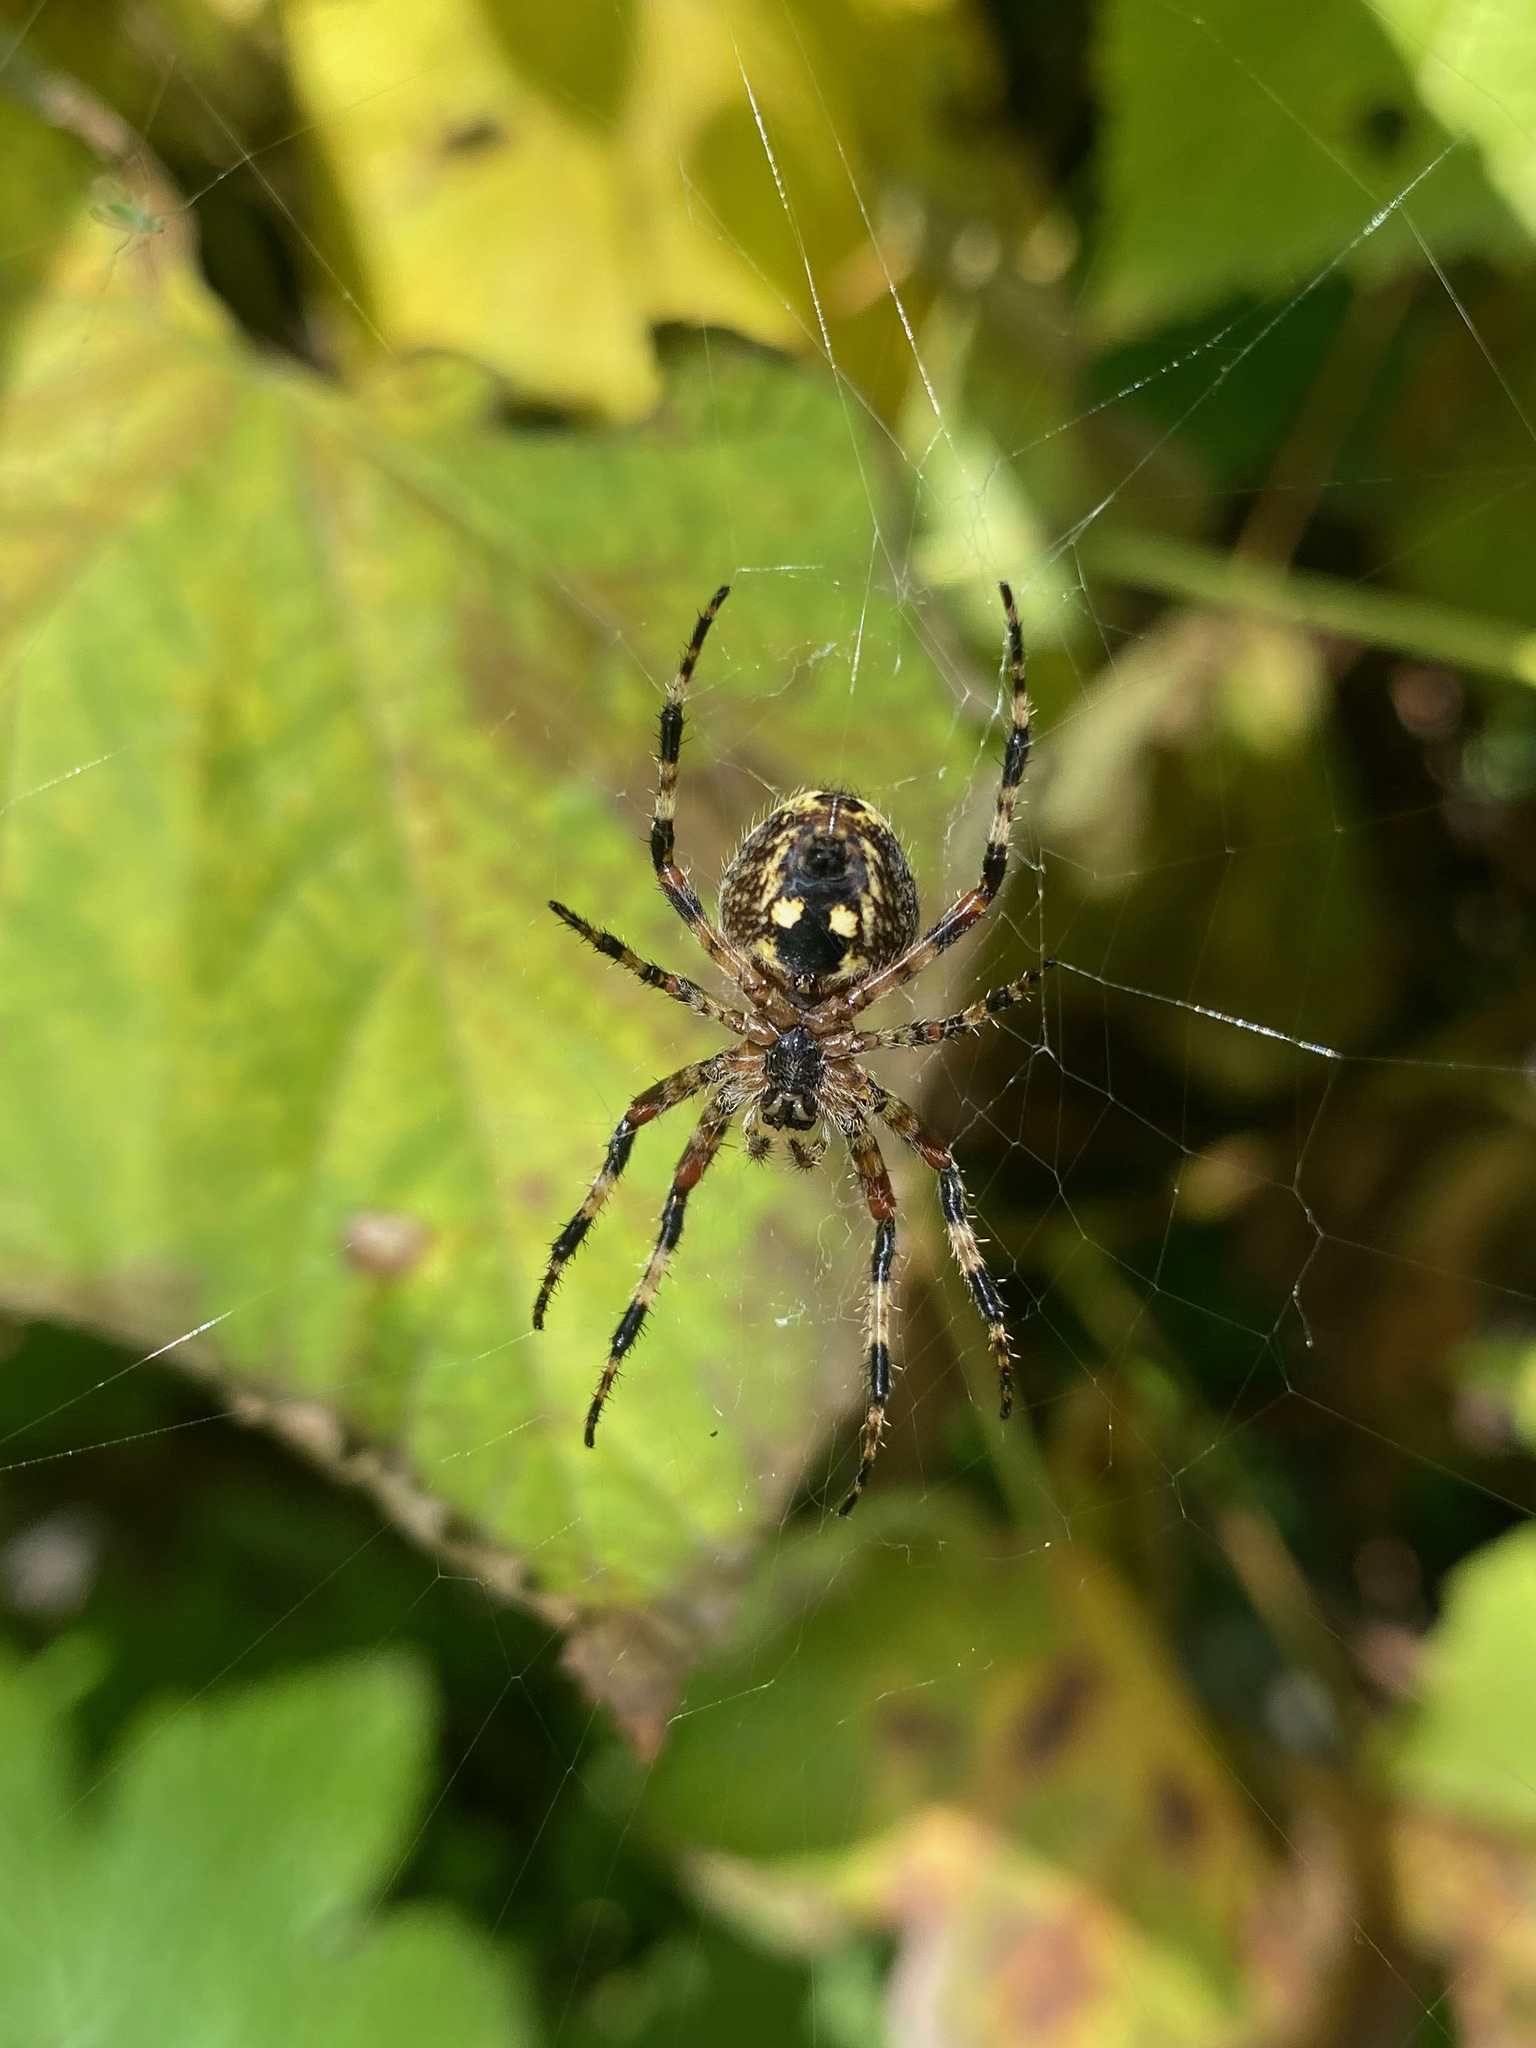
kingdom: Animalia
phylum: Arthropoda
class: Arachnida
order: Araneae
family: Araneidae
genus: Araneus
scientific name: Araneus nordmanni
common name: Nordmann's orbweaver
